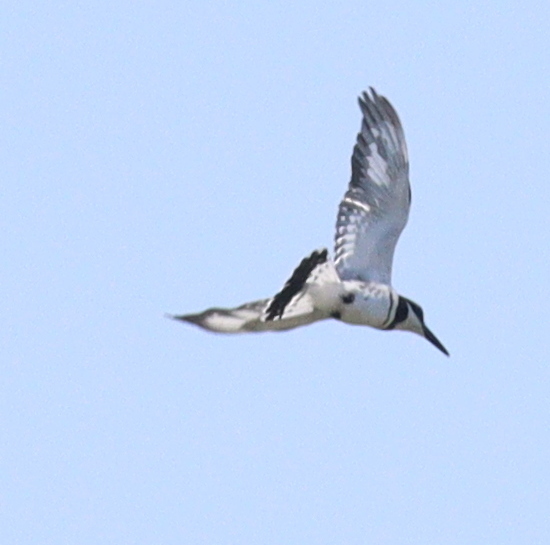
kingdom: Animalia
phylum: Chordata
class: Aves
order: Coraciiformes
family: Alcedinidae
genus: Ceryle
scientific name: Ceryle rudis
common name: Pied kingfisher
